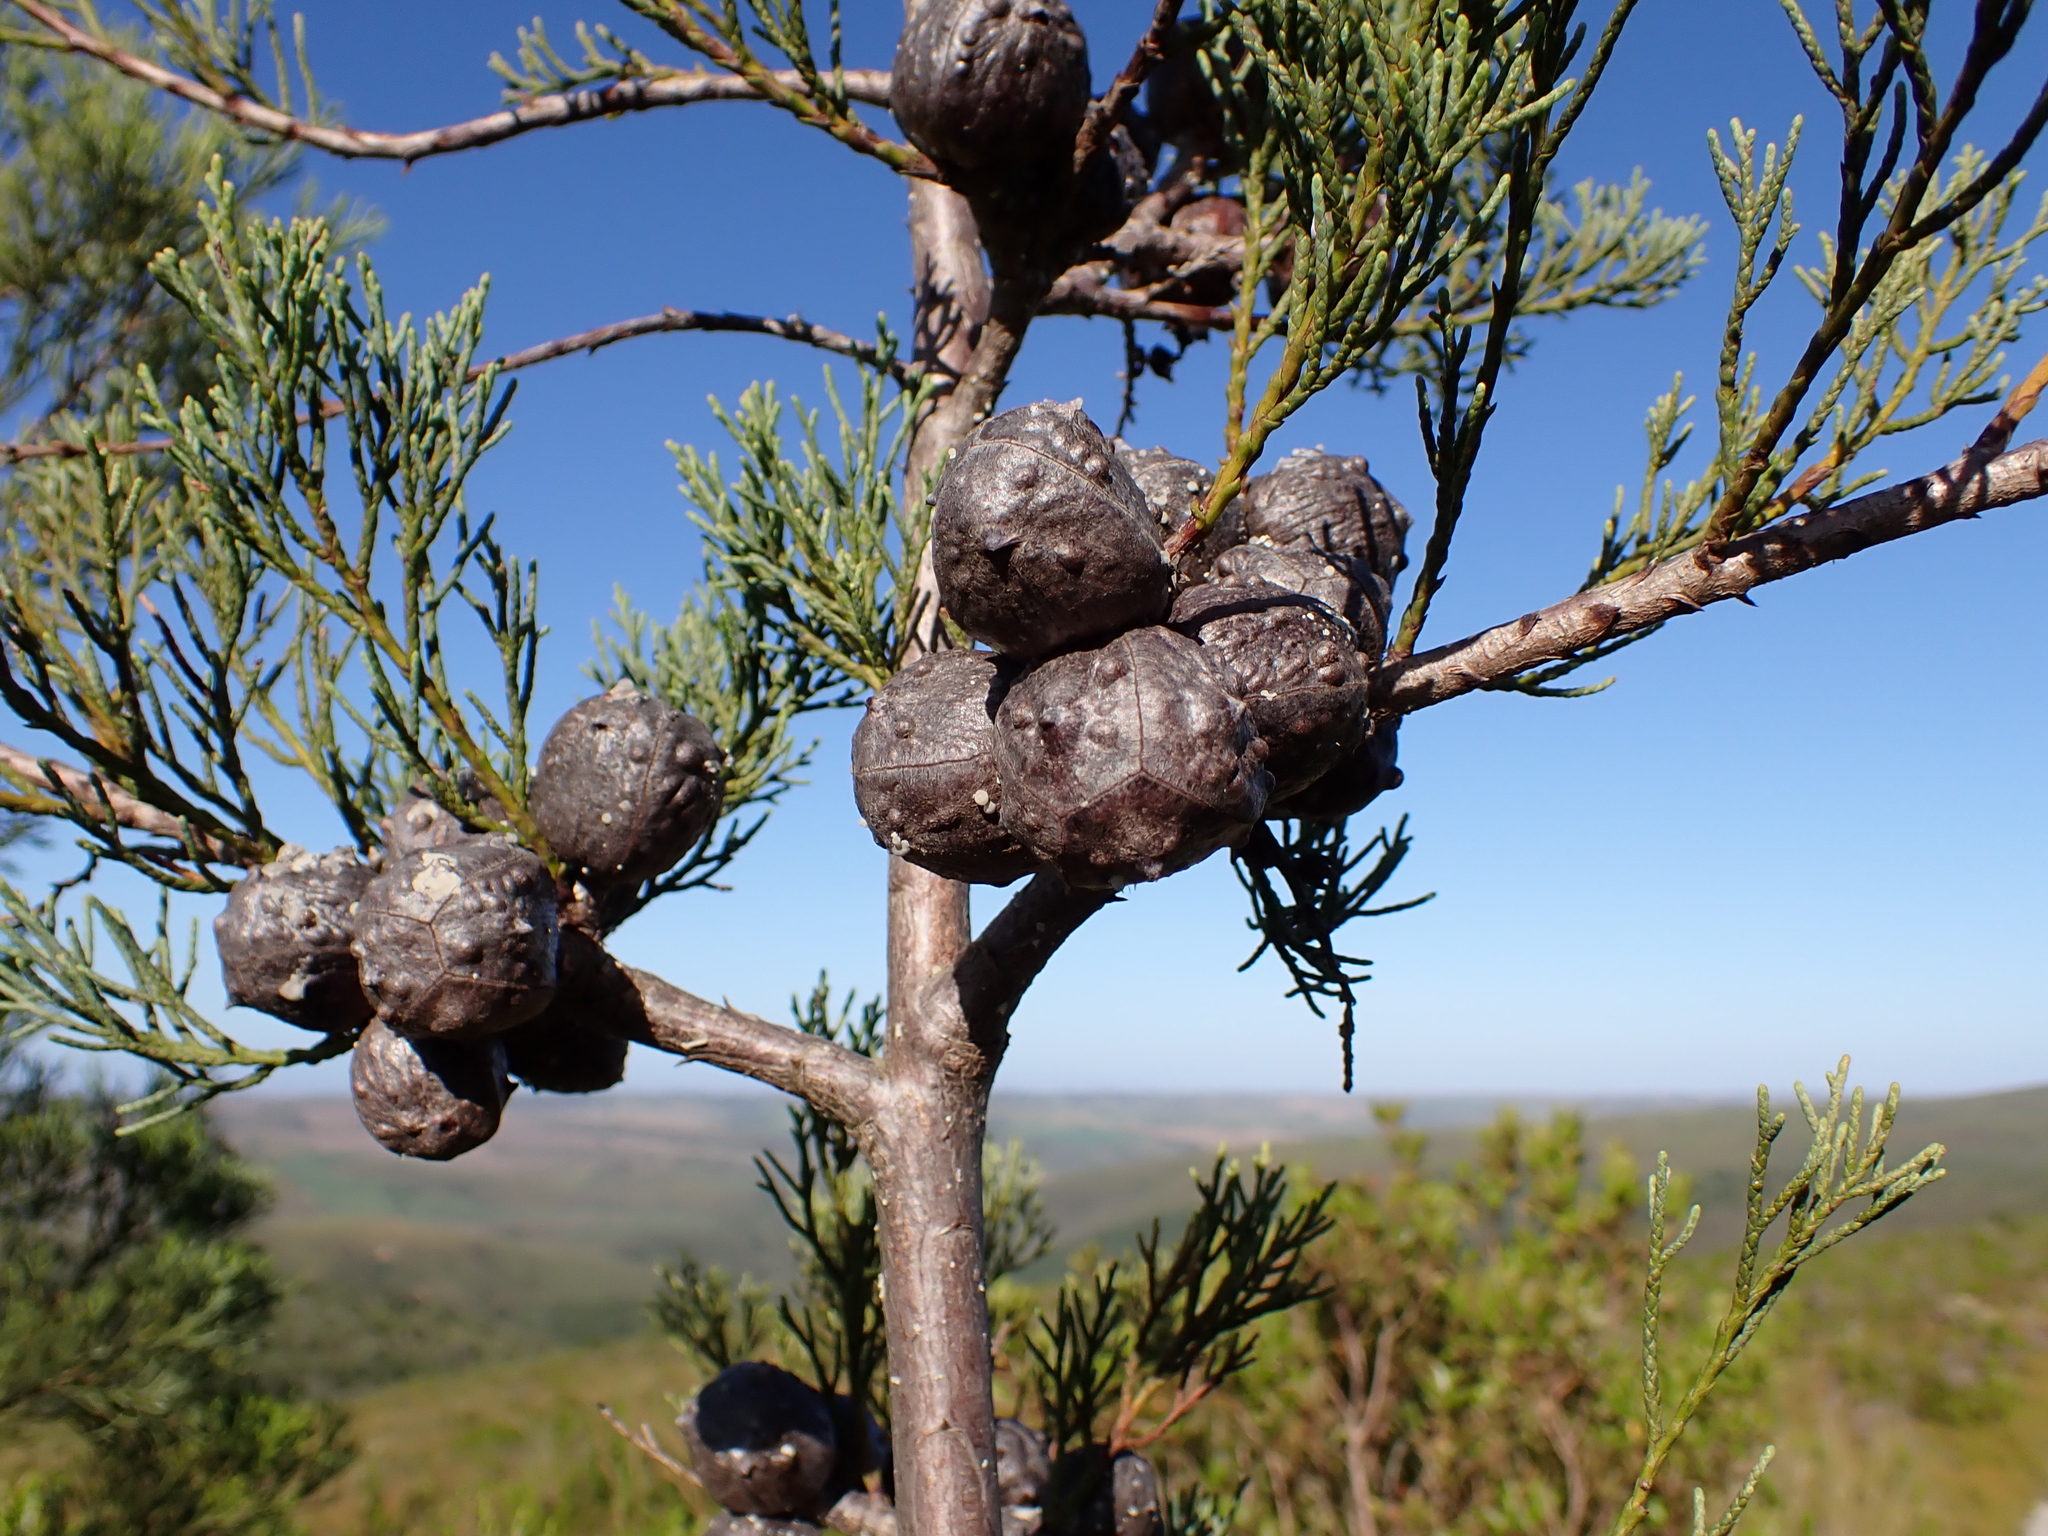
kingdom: Plantae
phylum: Tracheophyta
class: Pinopsida
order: Pinales
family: Cupressaceae
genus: Widdringtonia
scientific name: Widdringtonia nodiflora
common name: Cape cypress
